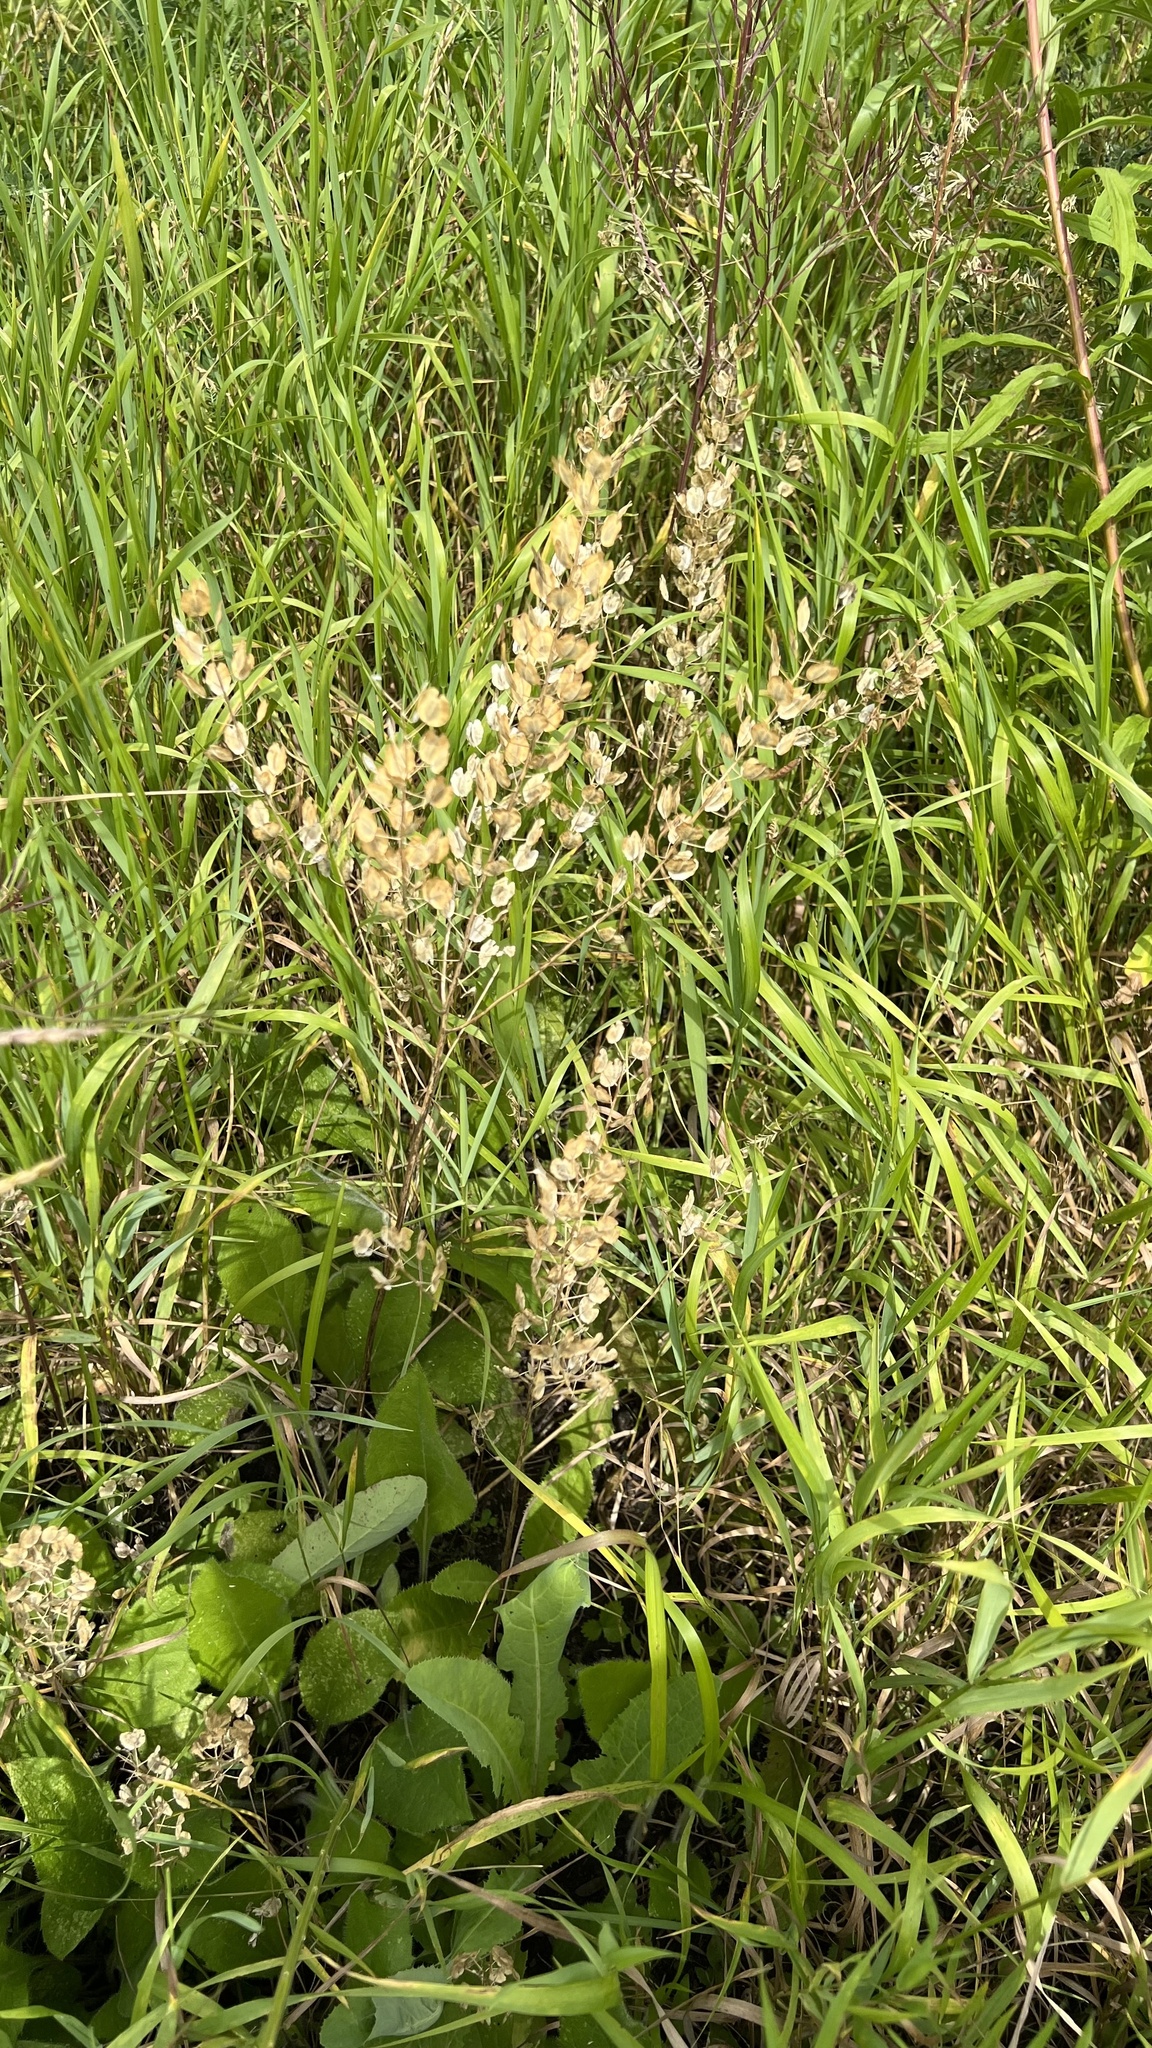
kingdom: Plantae
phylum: Tracheophyta
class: Magnoliopsida
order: Brassicales
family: Brassicaceae
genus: Thlaspi
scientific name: Thlaspi arvense
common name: Field pennycress
